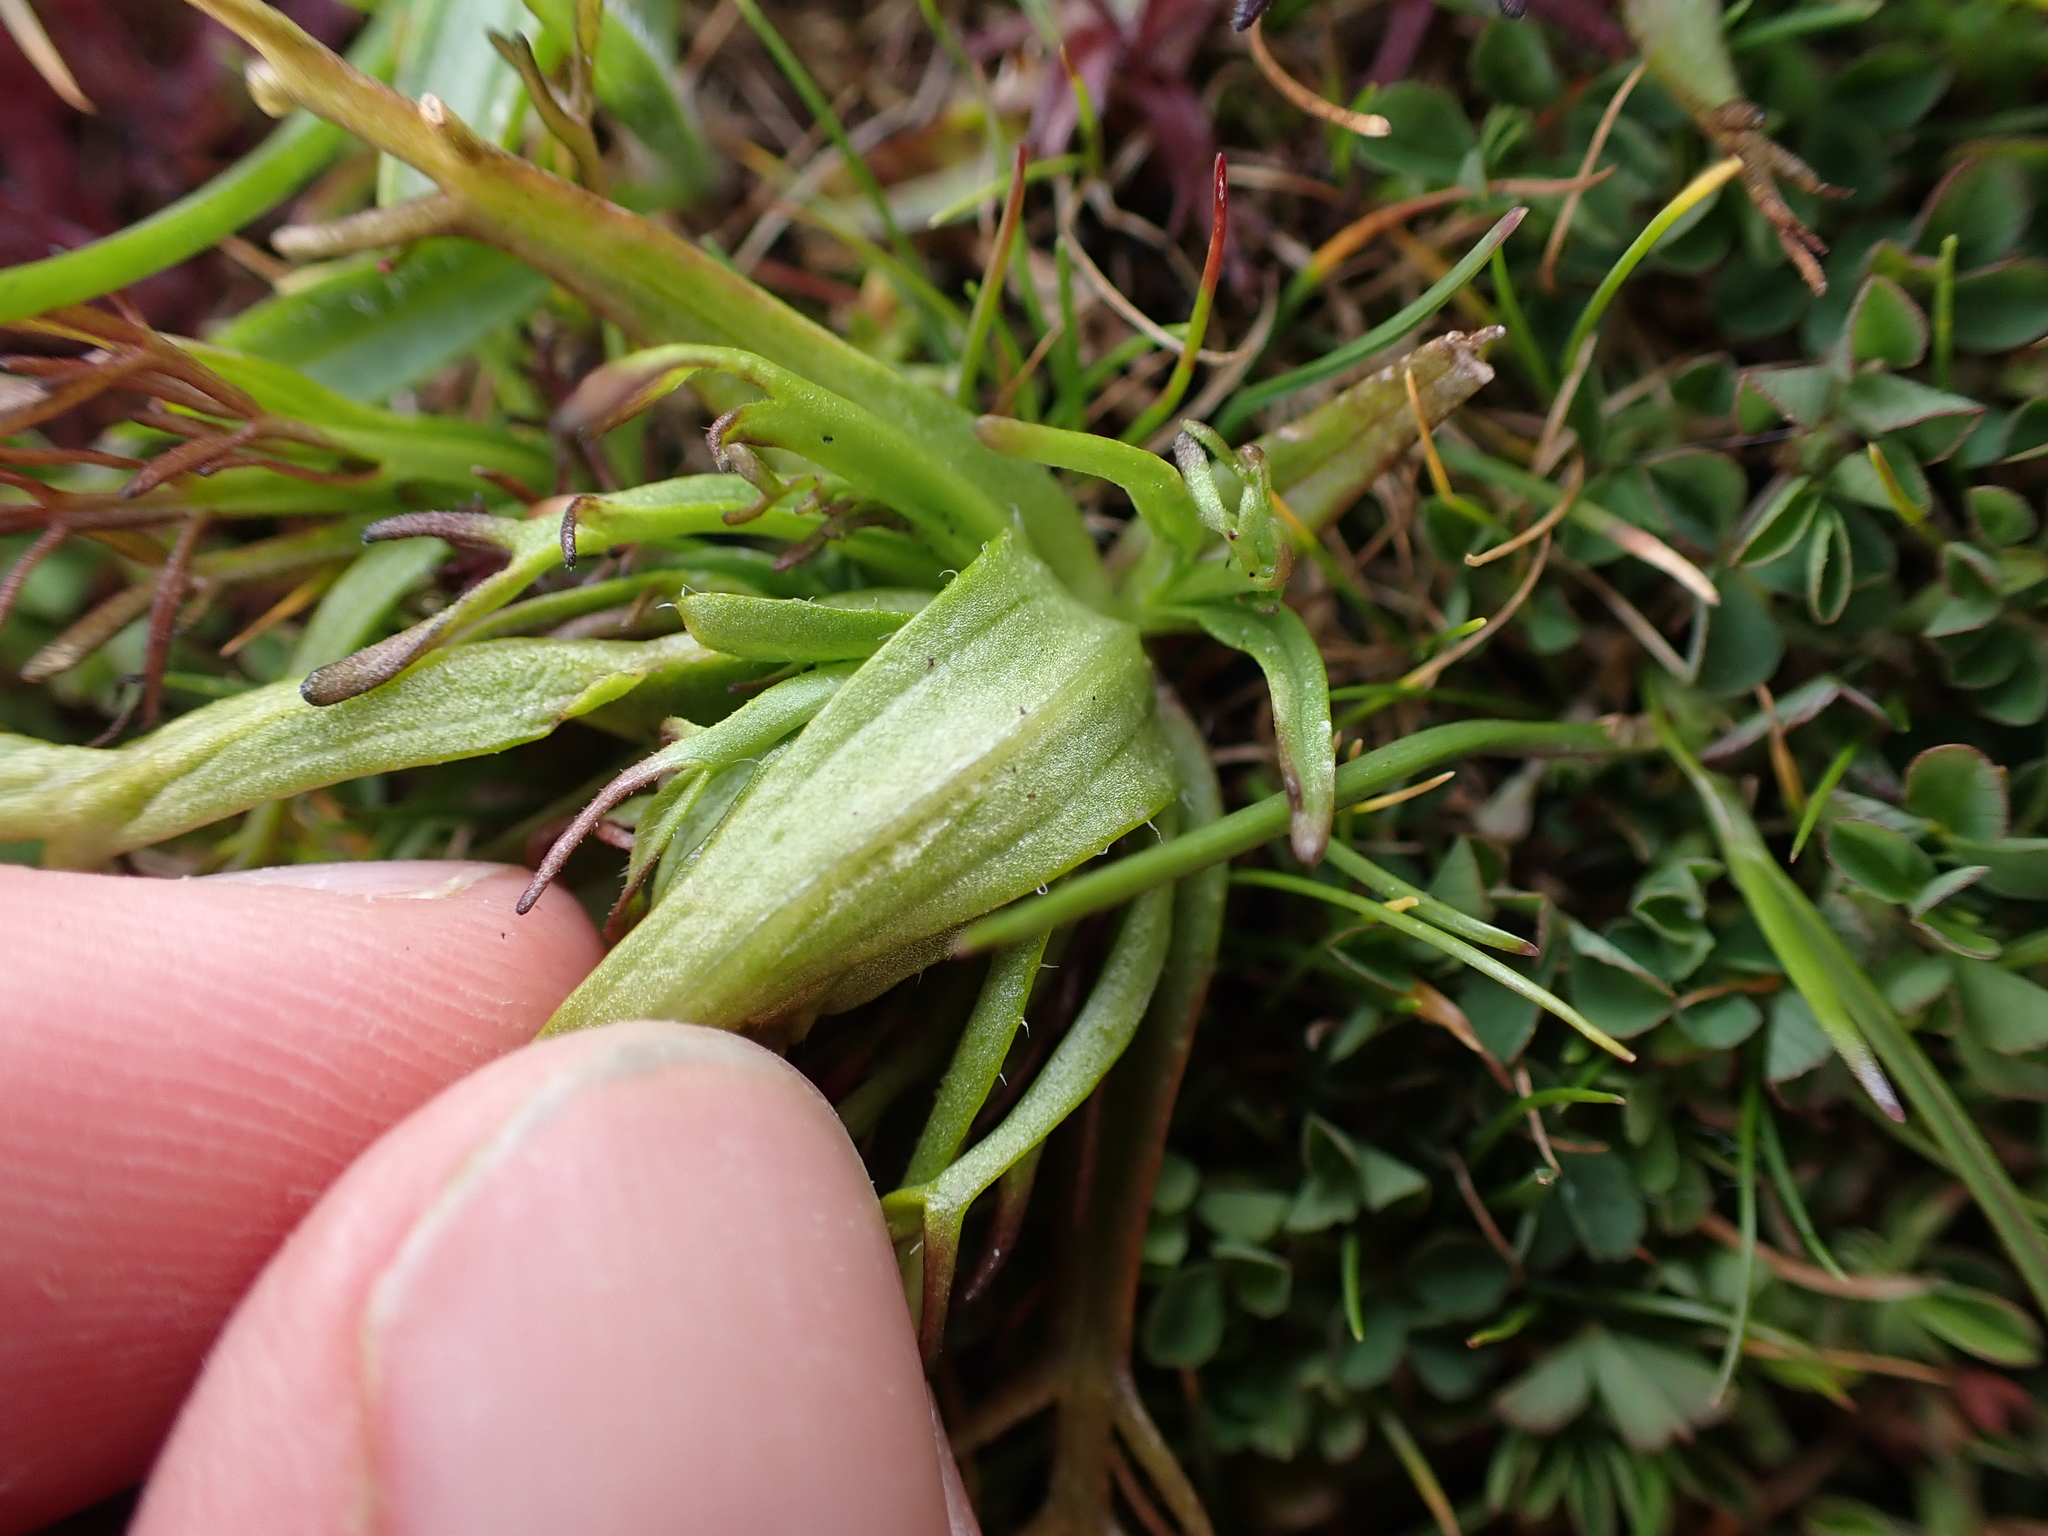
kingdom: Plantae
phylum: Tracheophyta
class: Magnoliopsida
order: Lamiales
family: Orobanchaceae
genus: Triphysaria
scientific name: Triphysaria versicolor
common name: Bearded false owl-clover
